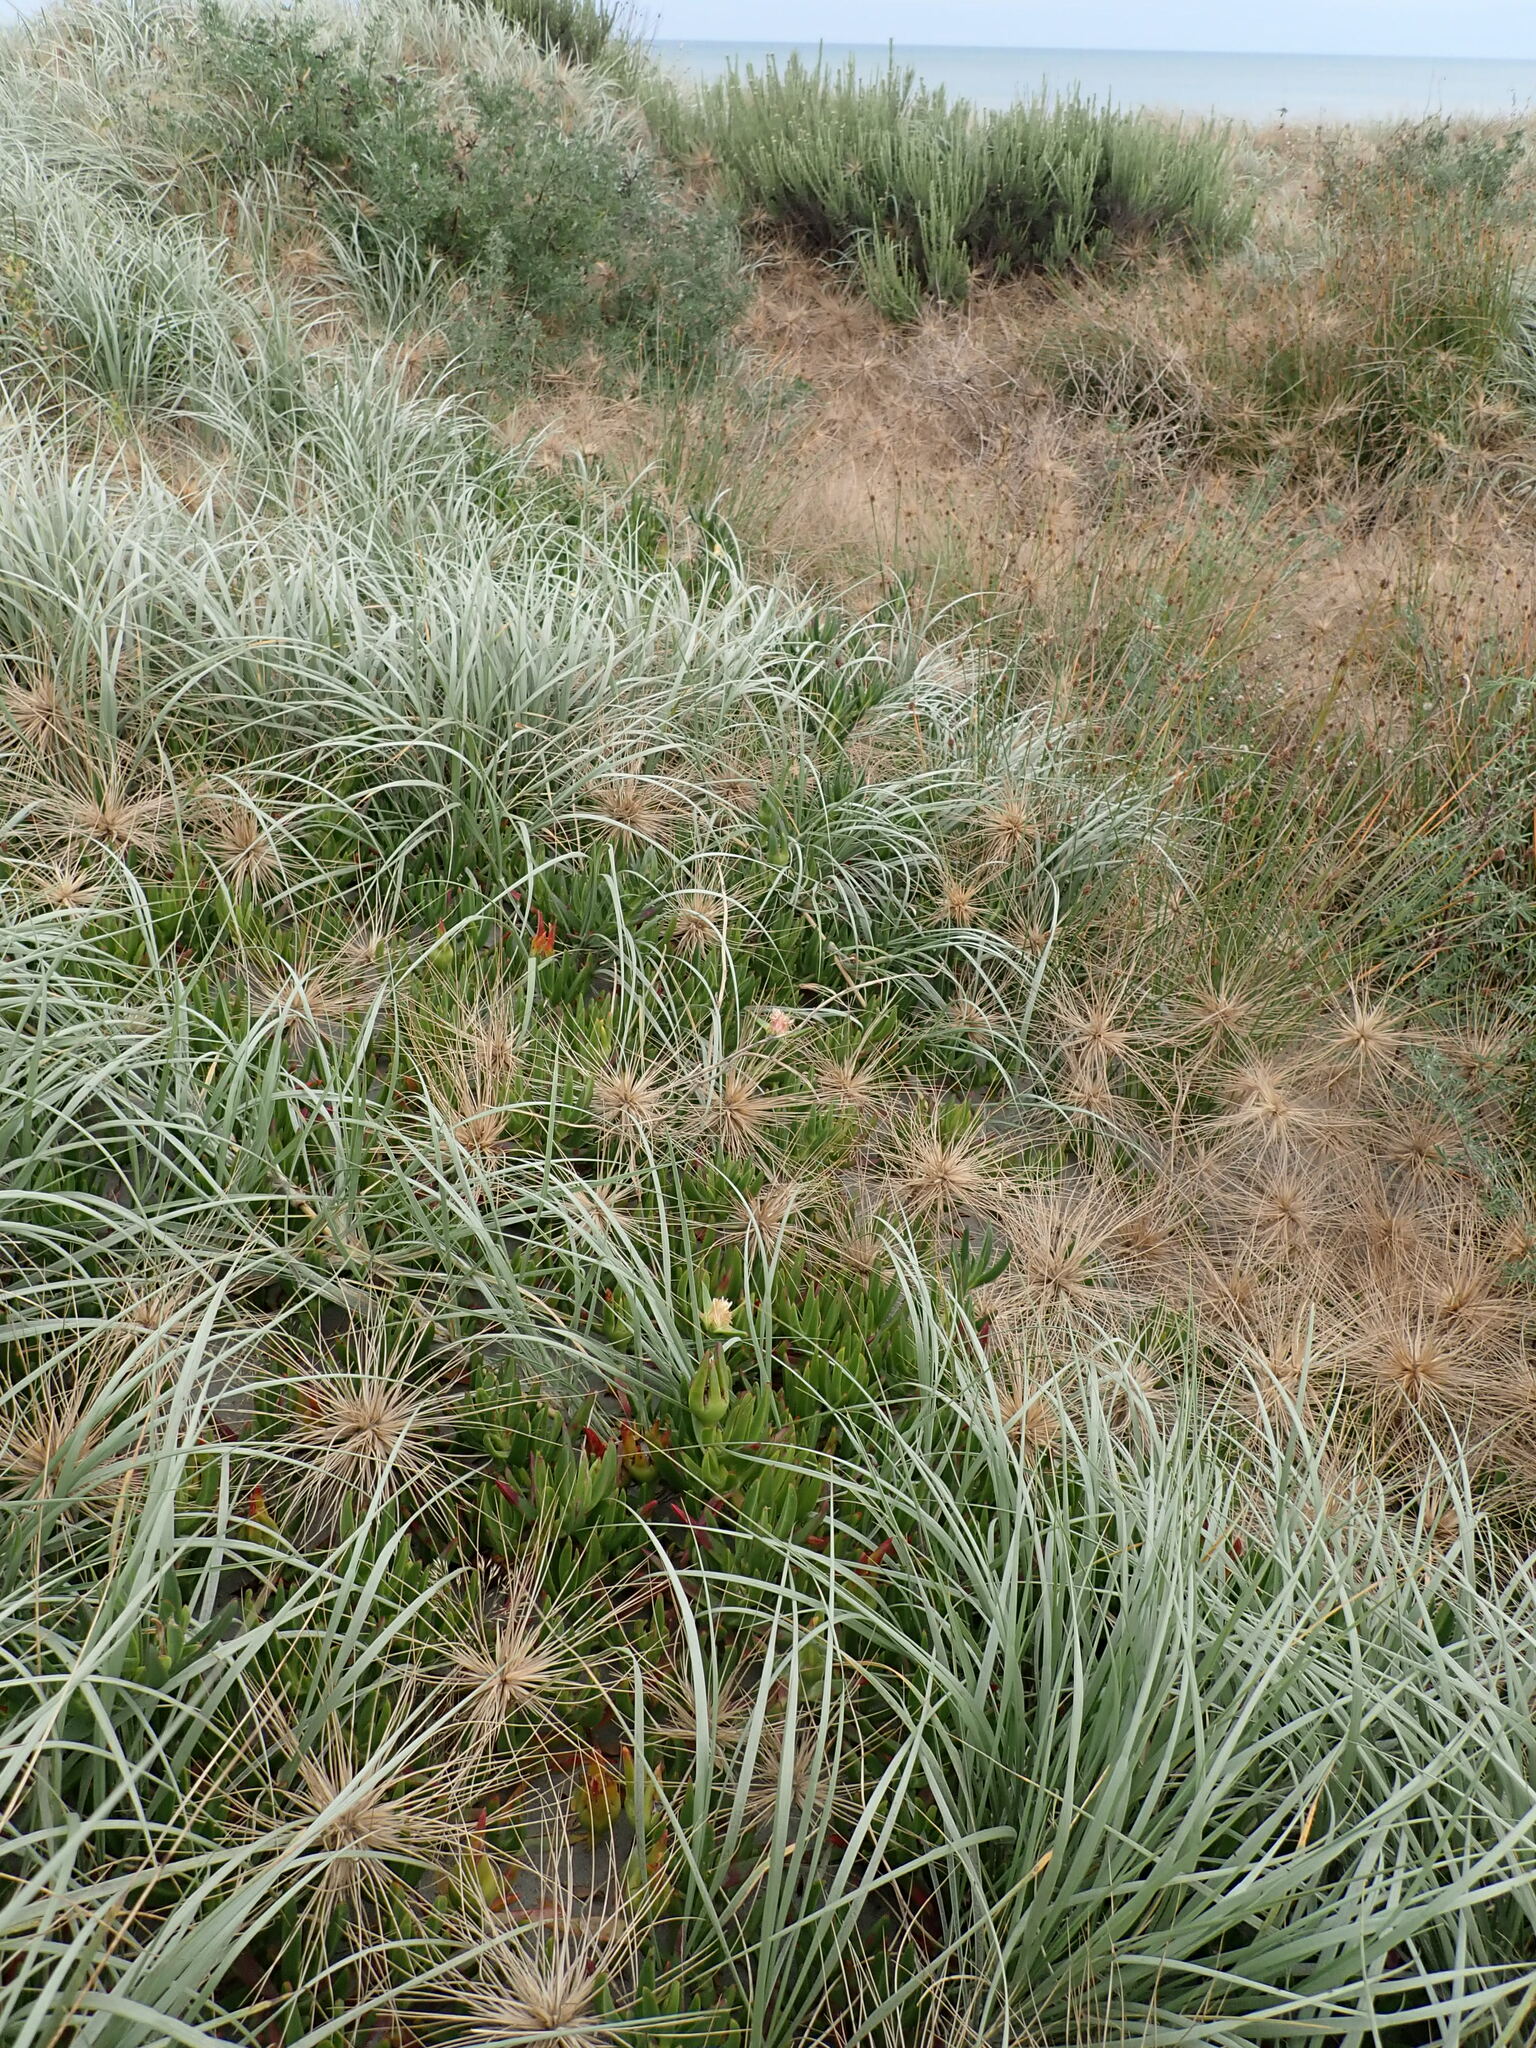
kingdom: Plantae
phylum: Tracheophyta
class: Magnoliopsida
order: Caryophyllales
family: Aizoaceae
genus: Carpobrotus
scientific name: Carpobrotus edulis
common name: Hottentot-fig
